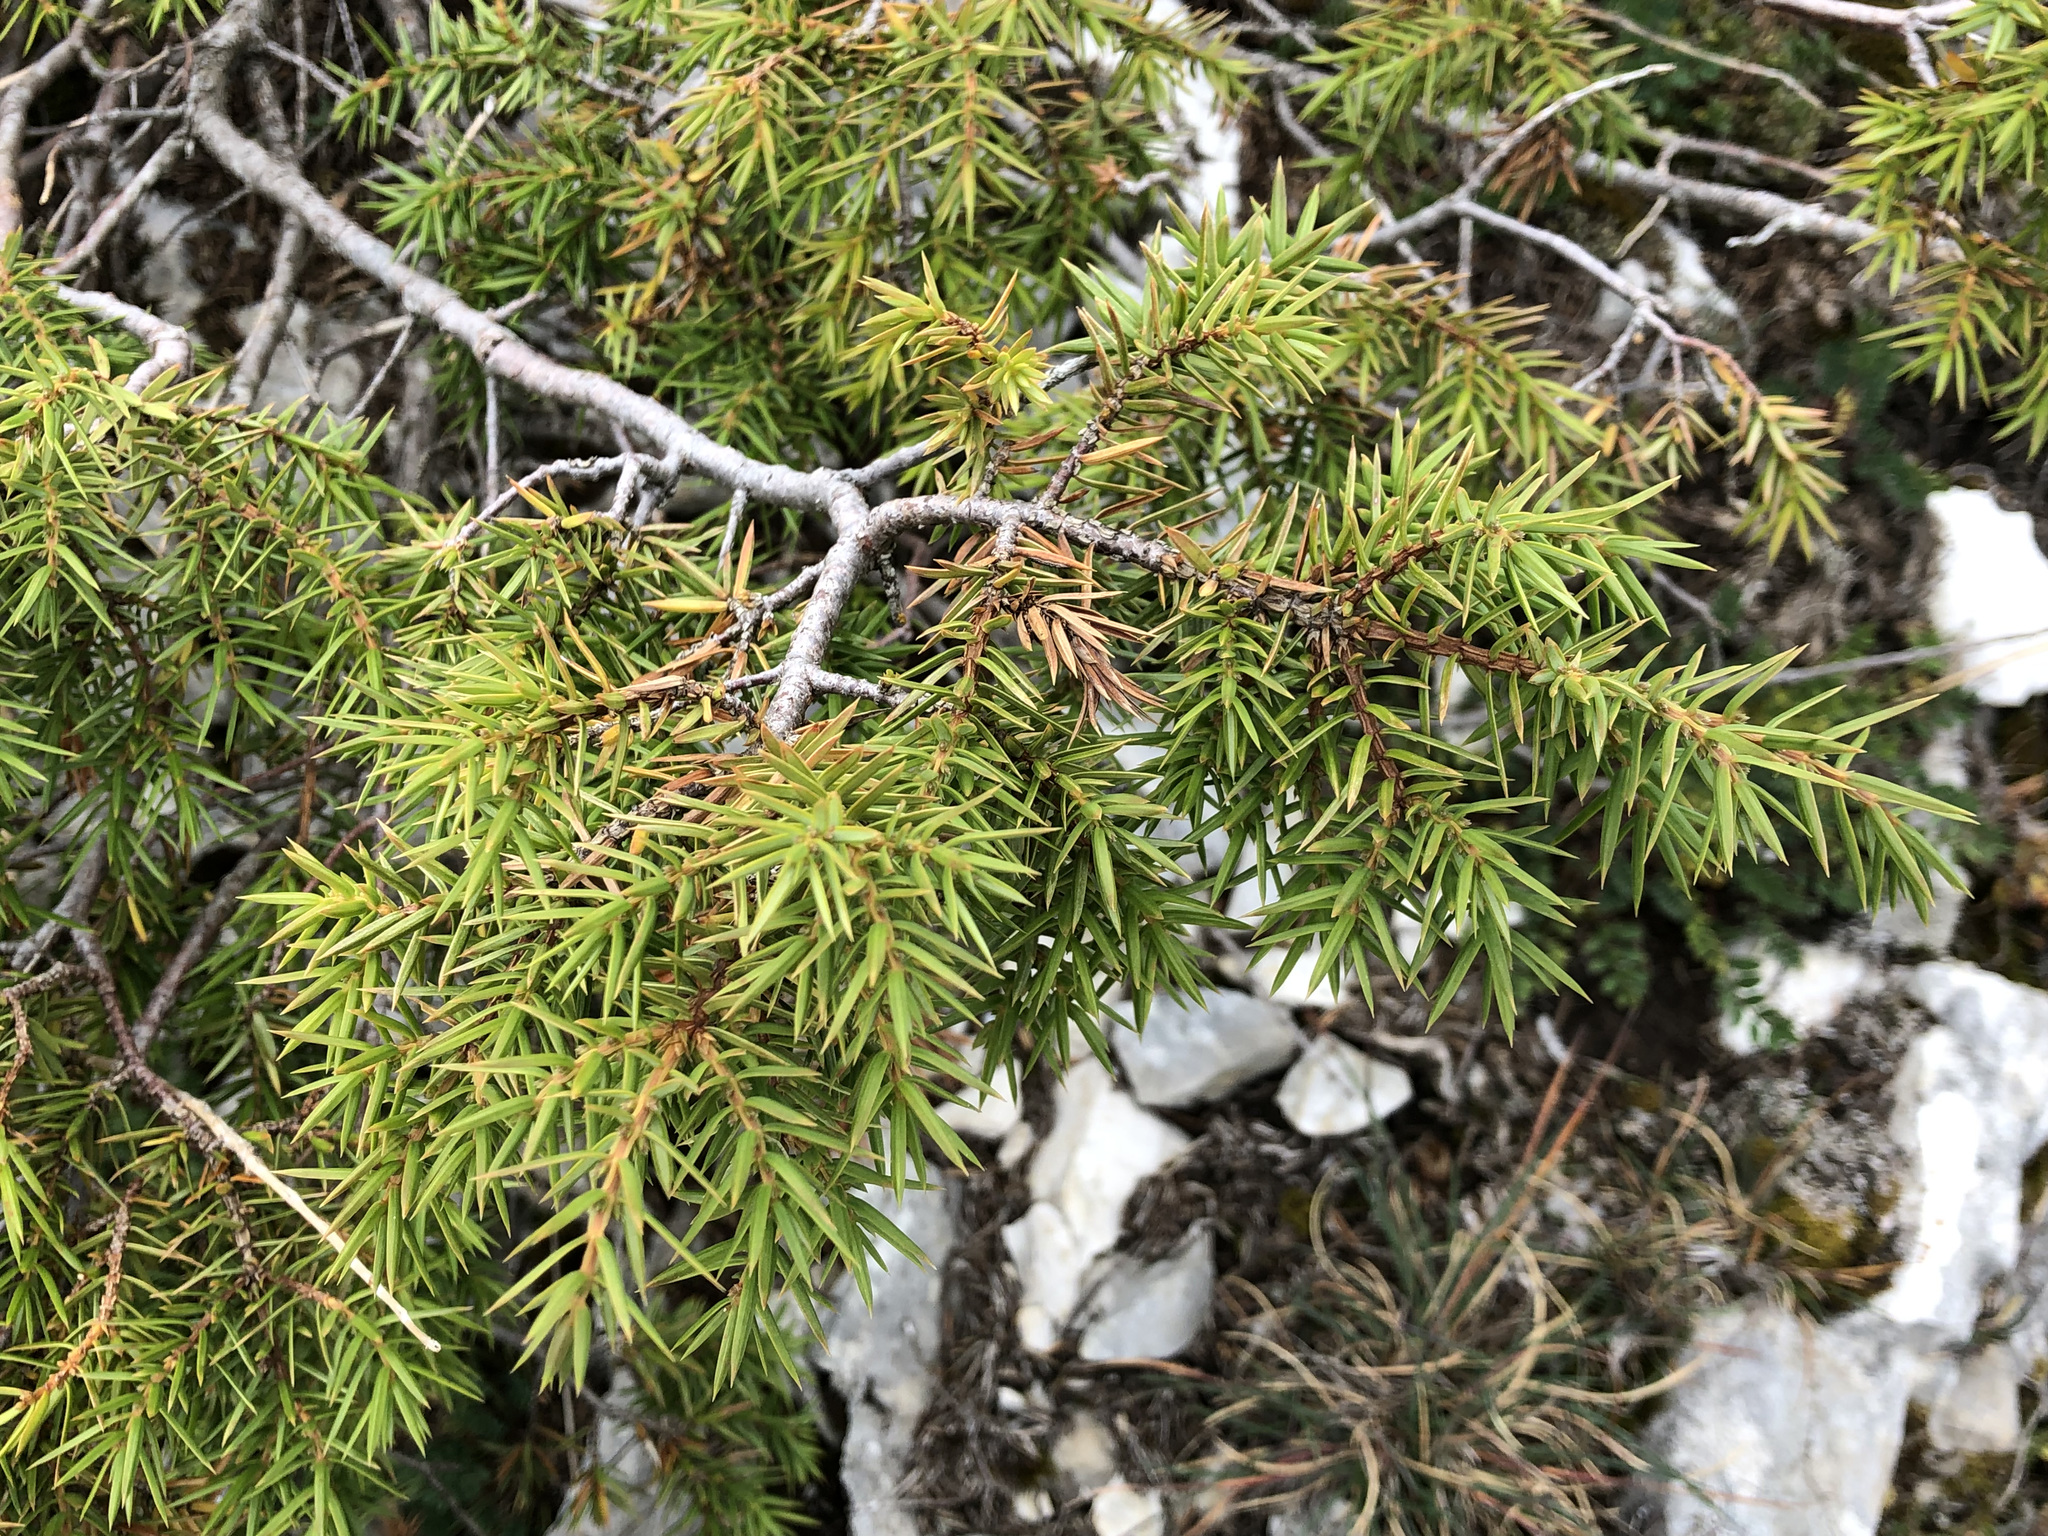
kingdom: Plantae
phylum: Tracheophyta
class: Pinopsida
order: Pinales
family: Cupressaceae
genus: Juniperus
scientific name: Juniperus communis
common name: Common juniper
